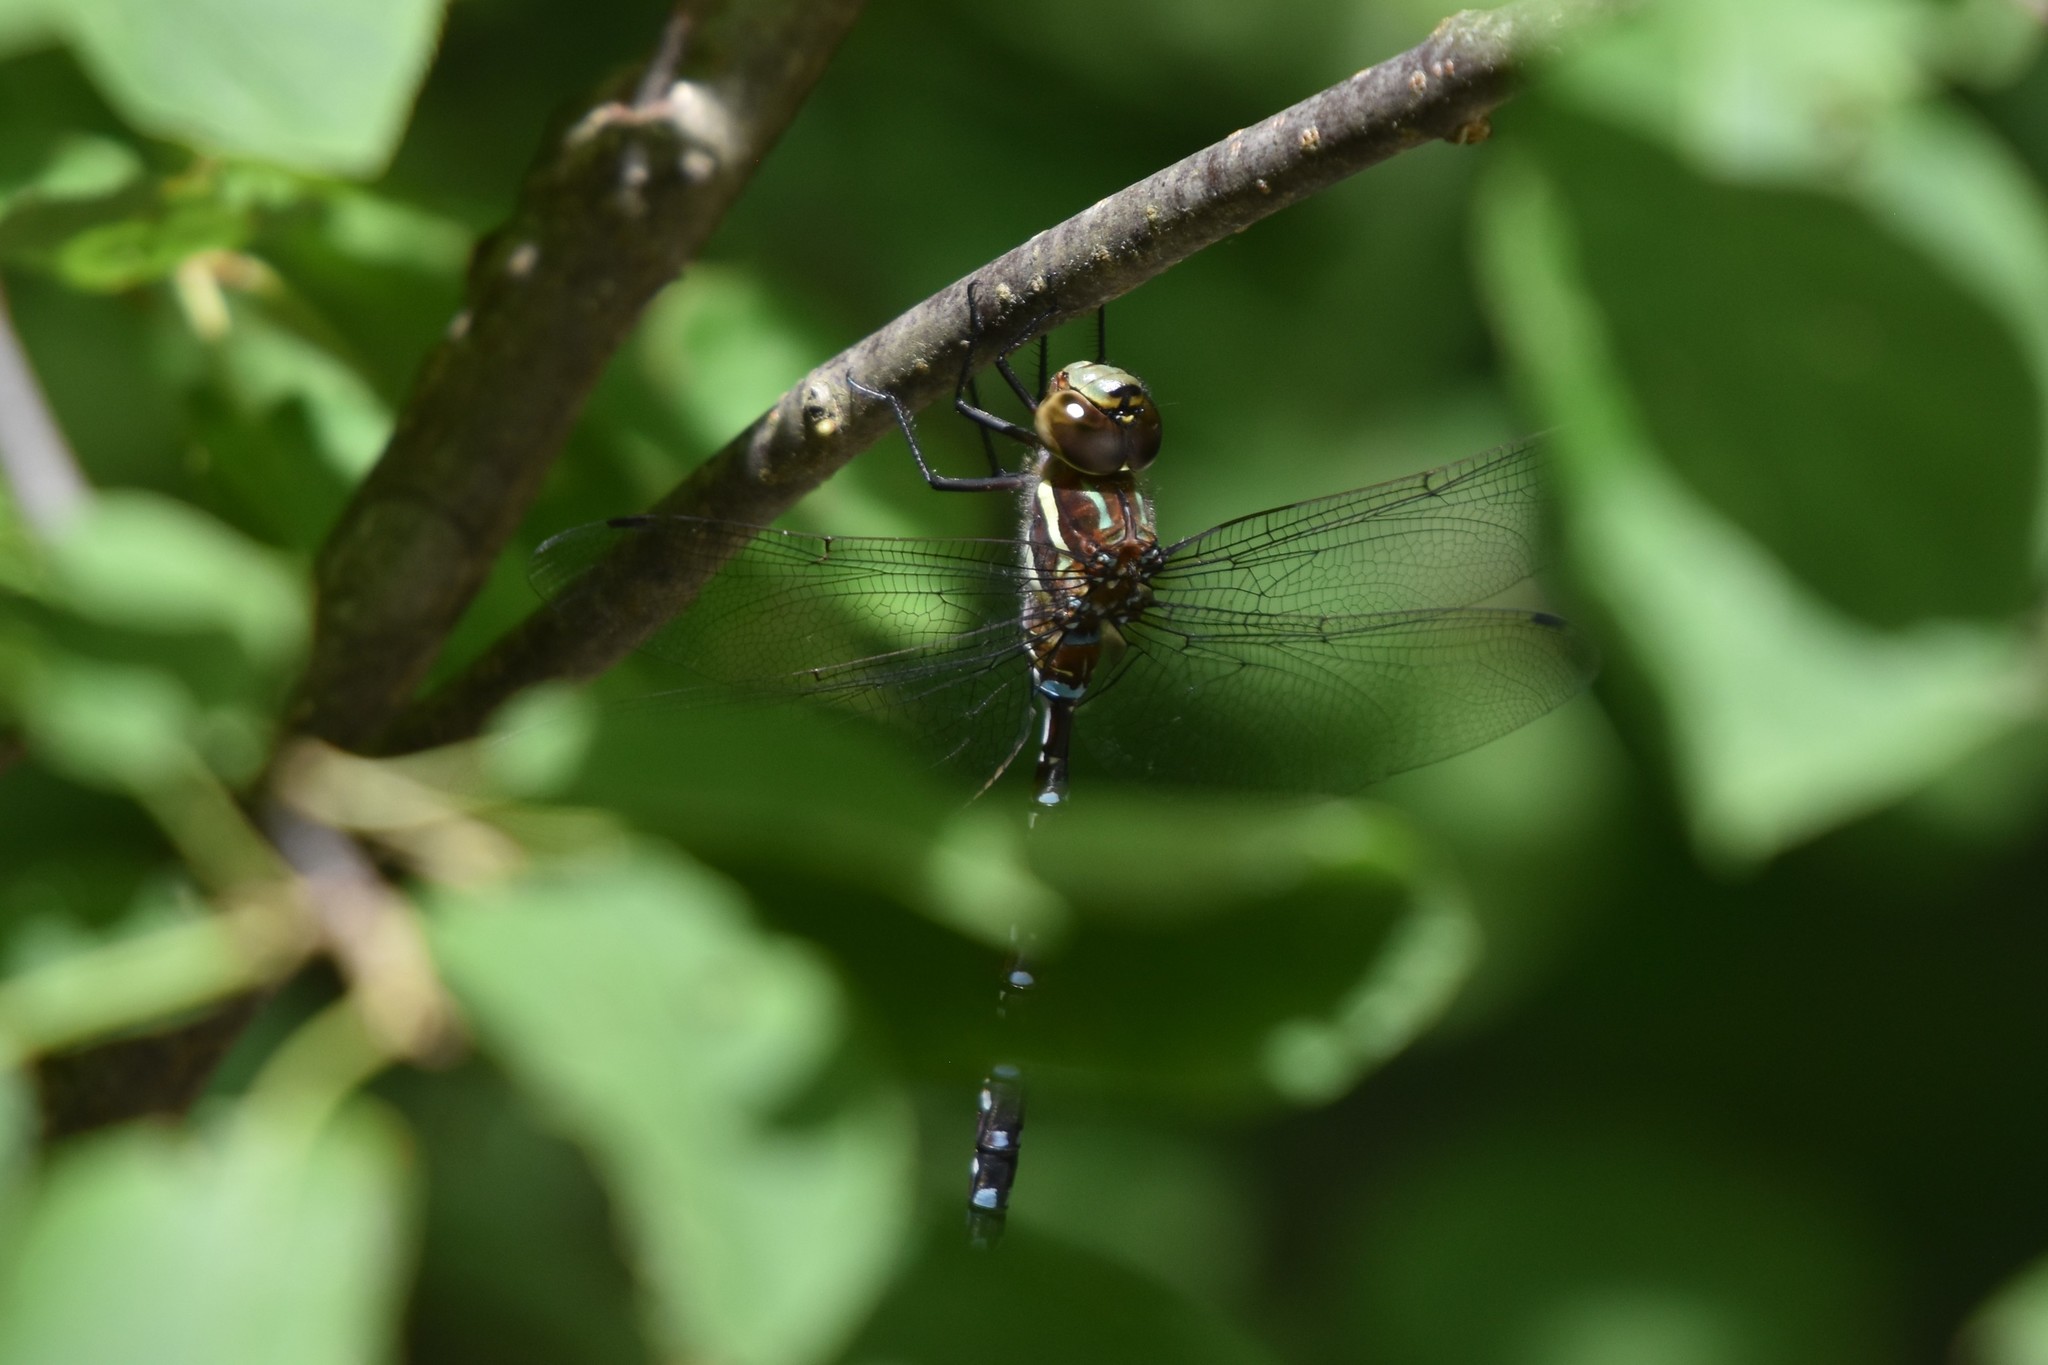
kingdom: Animalia
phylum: Arthropoda
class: Insecta
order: Odonata
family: Aeshnidae
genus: Aeshna
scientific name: Aeshna tuberculifera
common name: Aeschne à tubercules
